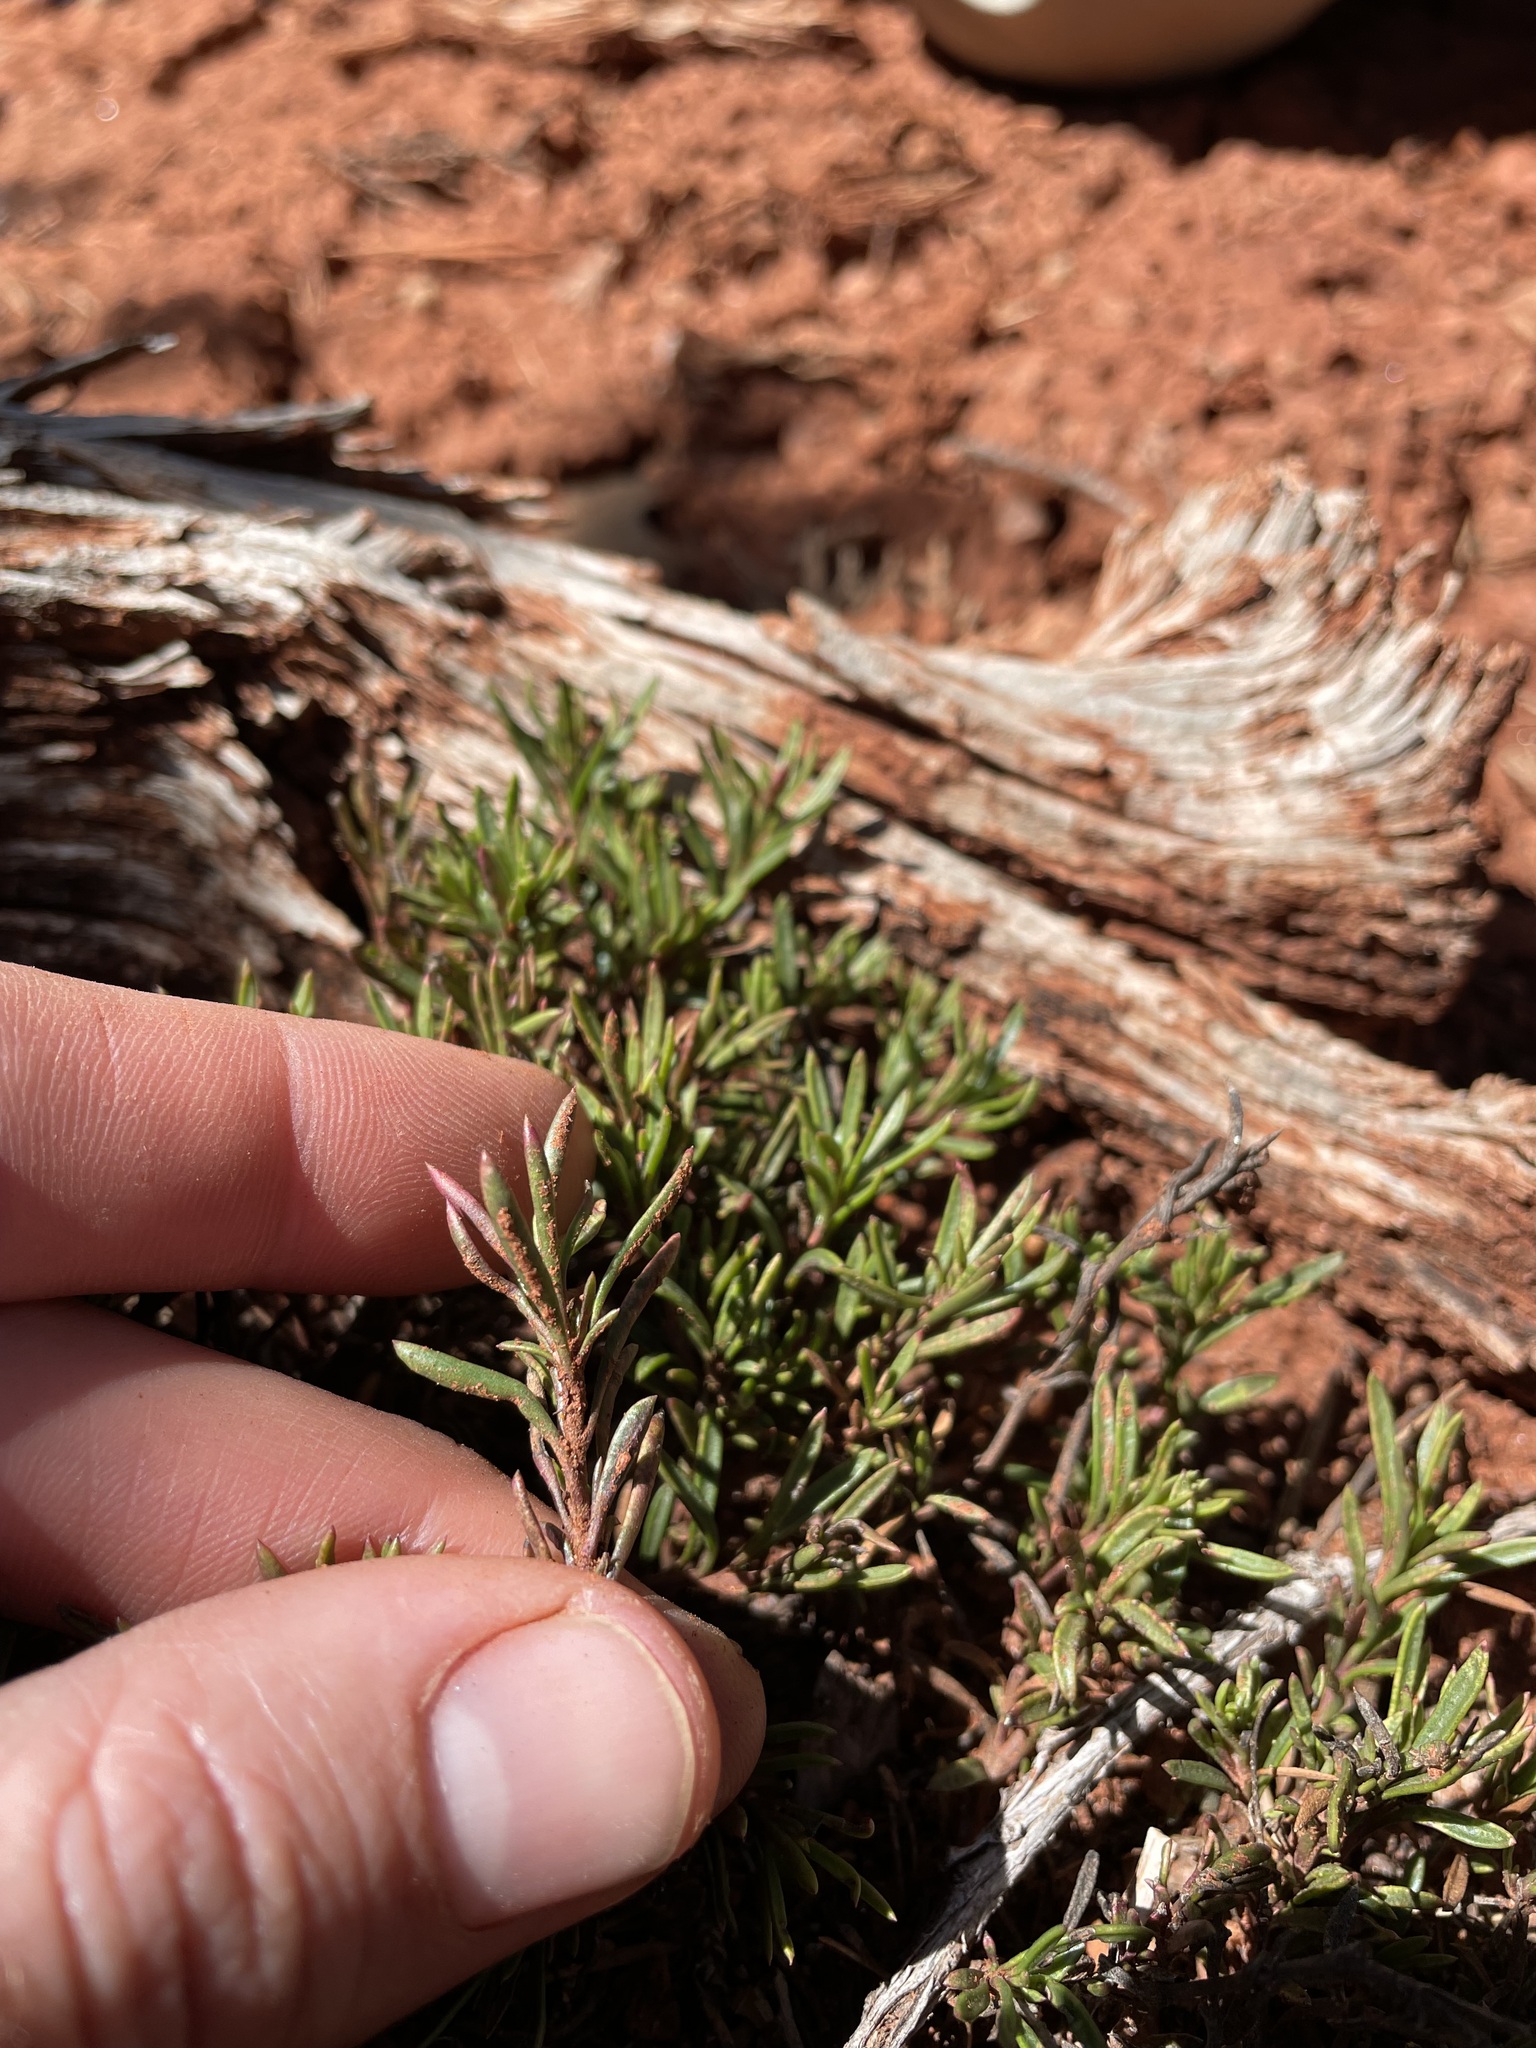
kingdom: Plantae
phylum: Tracheophyta
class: Magnoliopsida
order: Lamiales
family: Plantaginaceae
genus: Penstemon
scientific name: Penstemon crandallii
